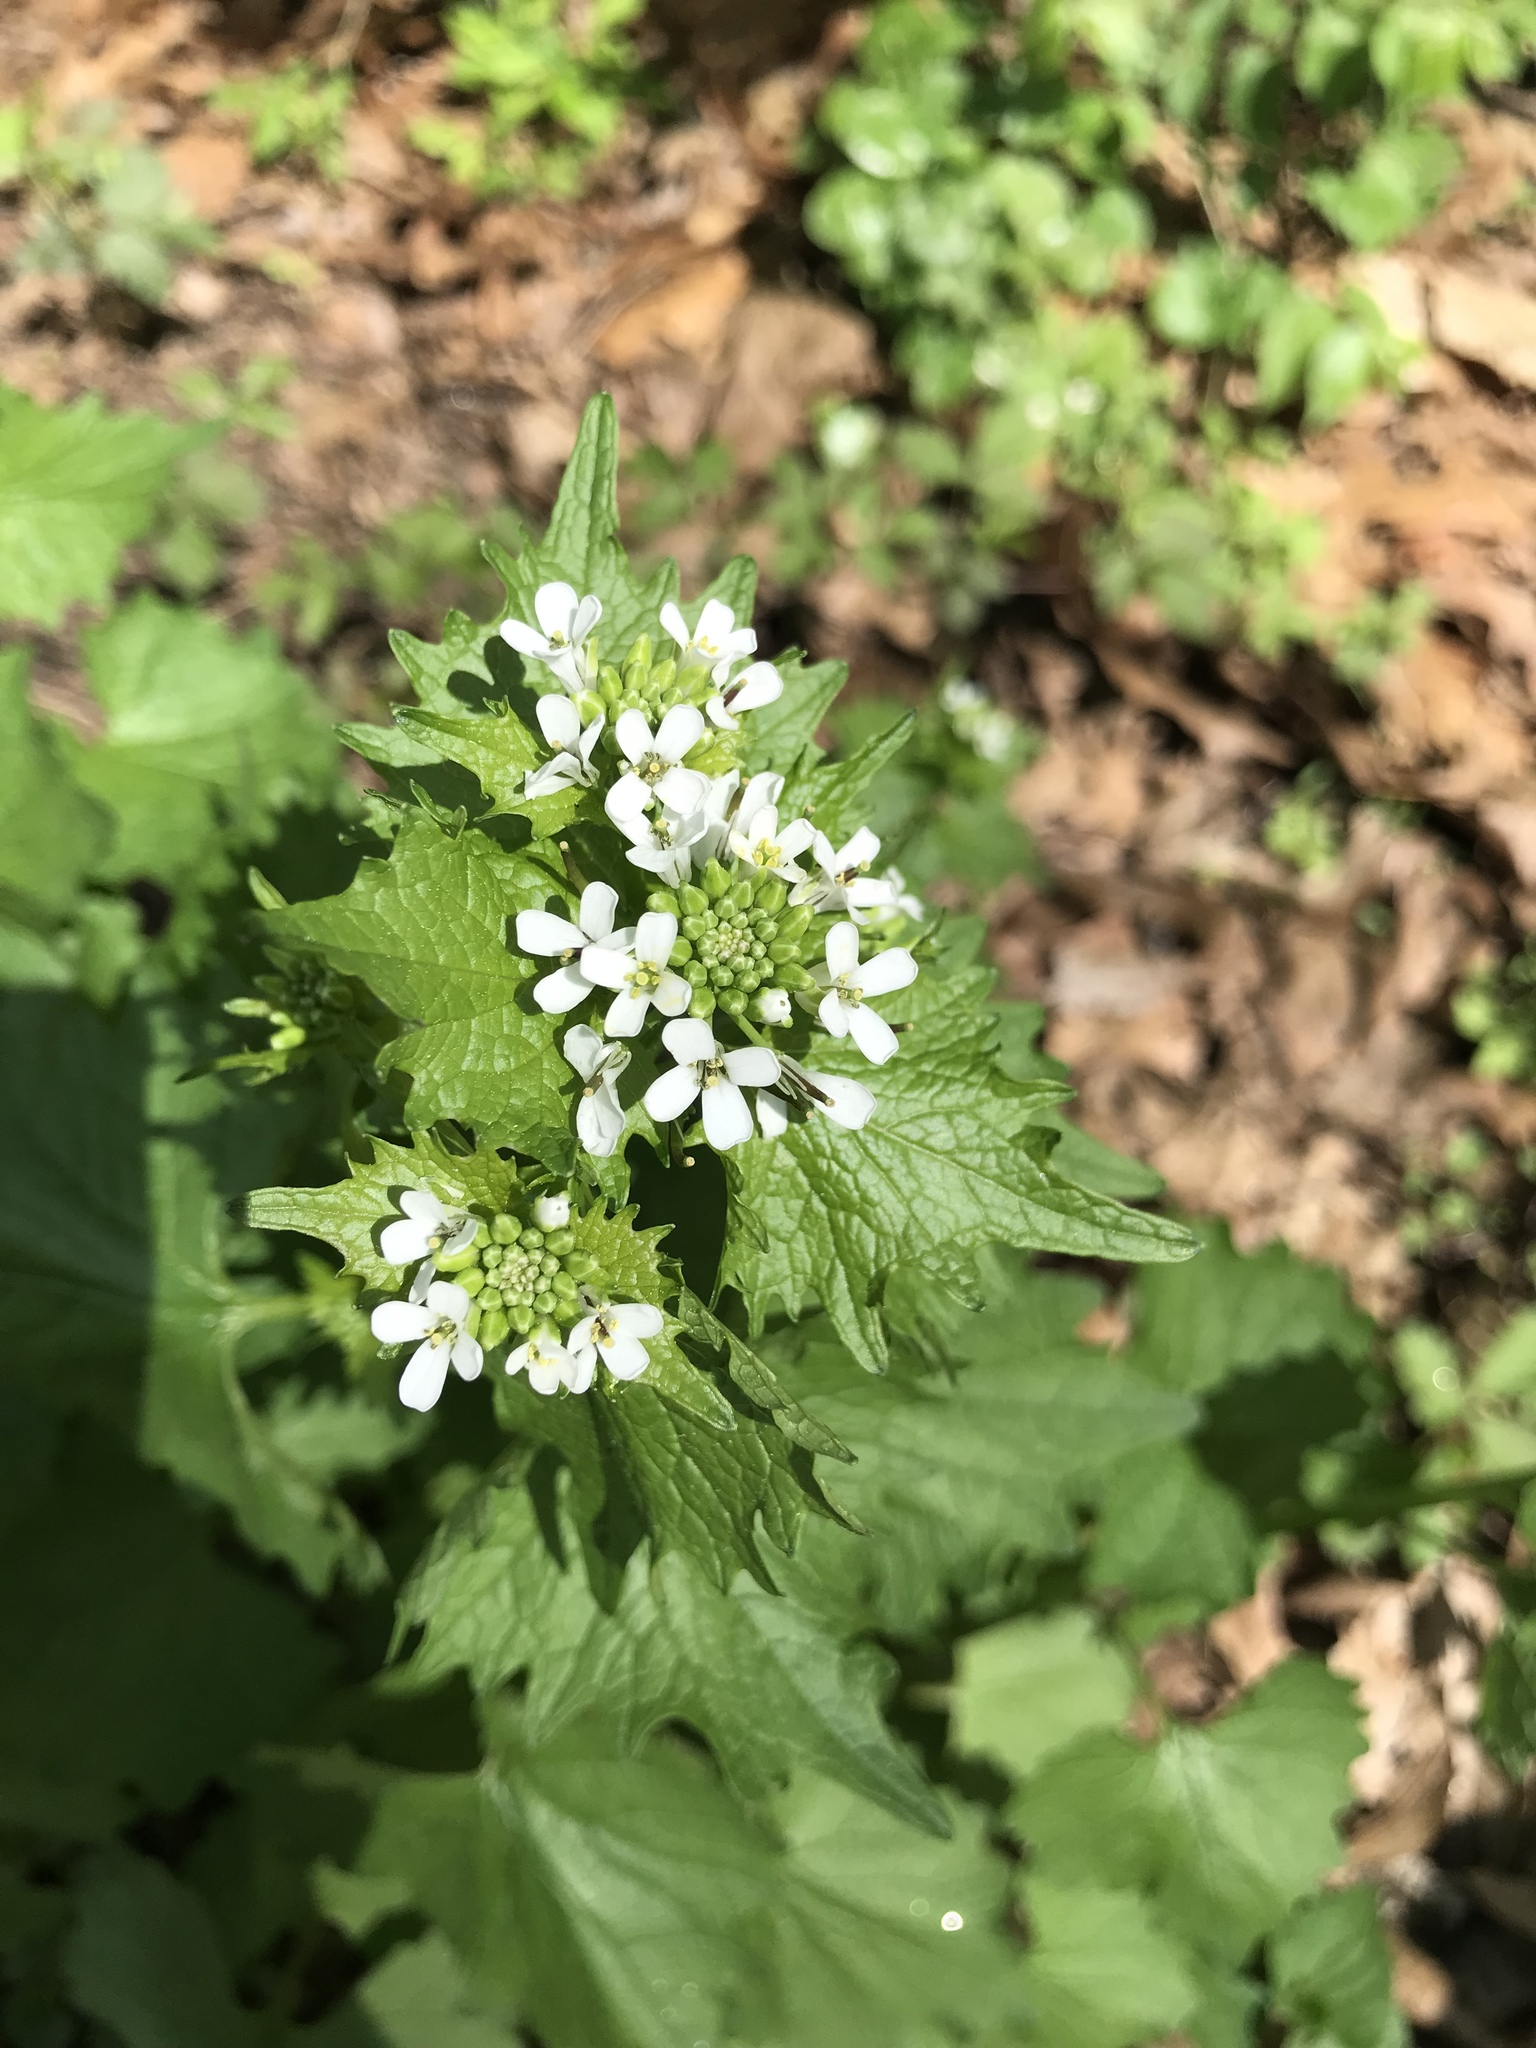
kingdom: Plantae
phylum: Tracheophyta
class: Magnoliopsida
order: Brassicales
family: Brassicaceae
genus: Alliaria
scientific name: Alliaria petiolata
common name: Garlic mustard
